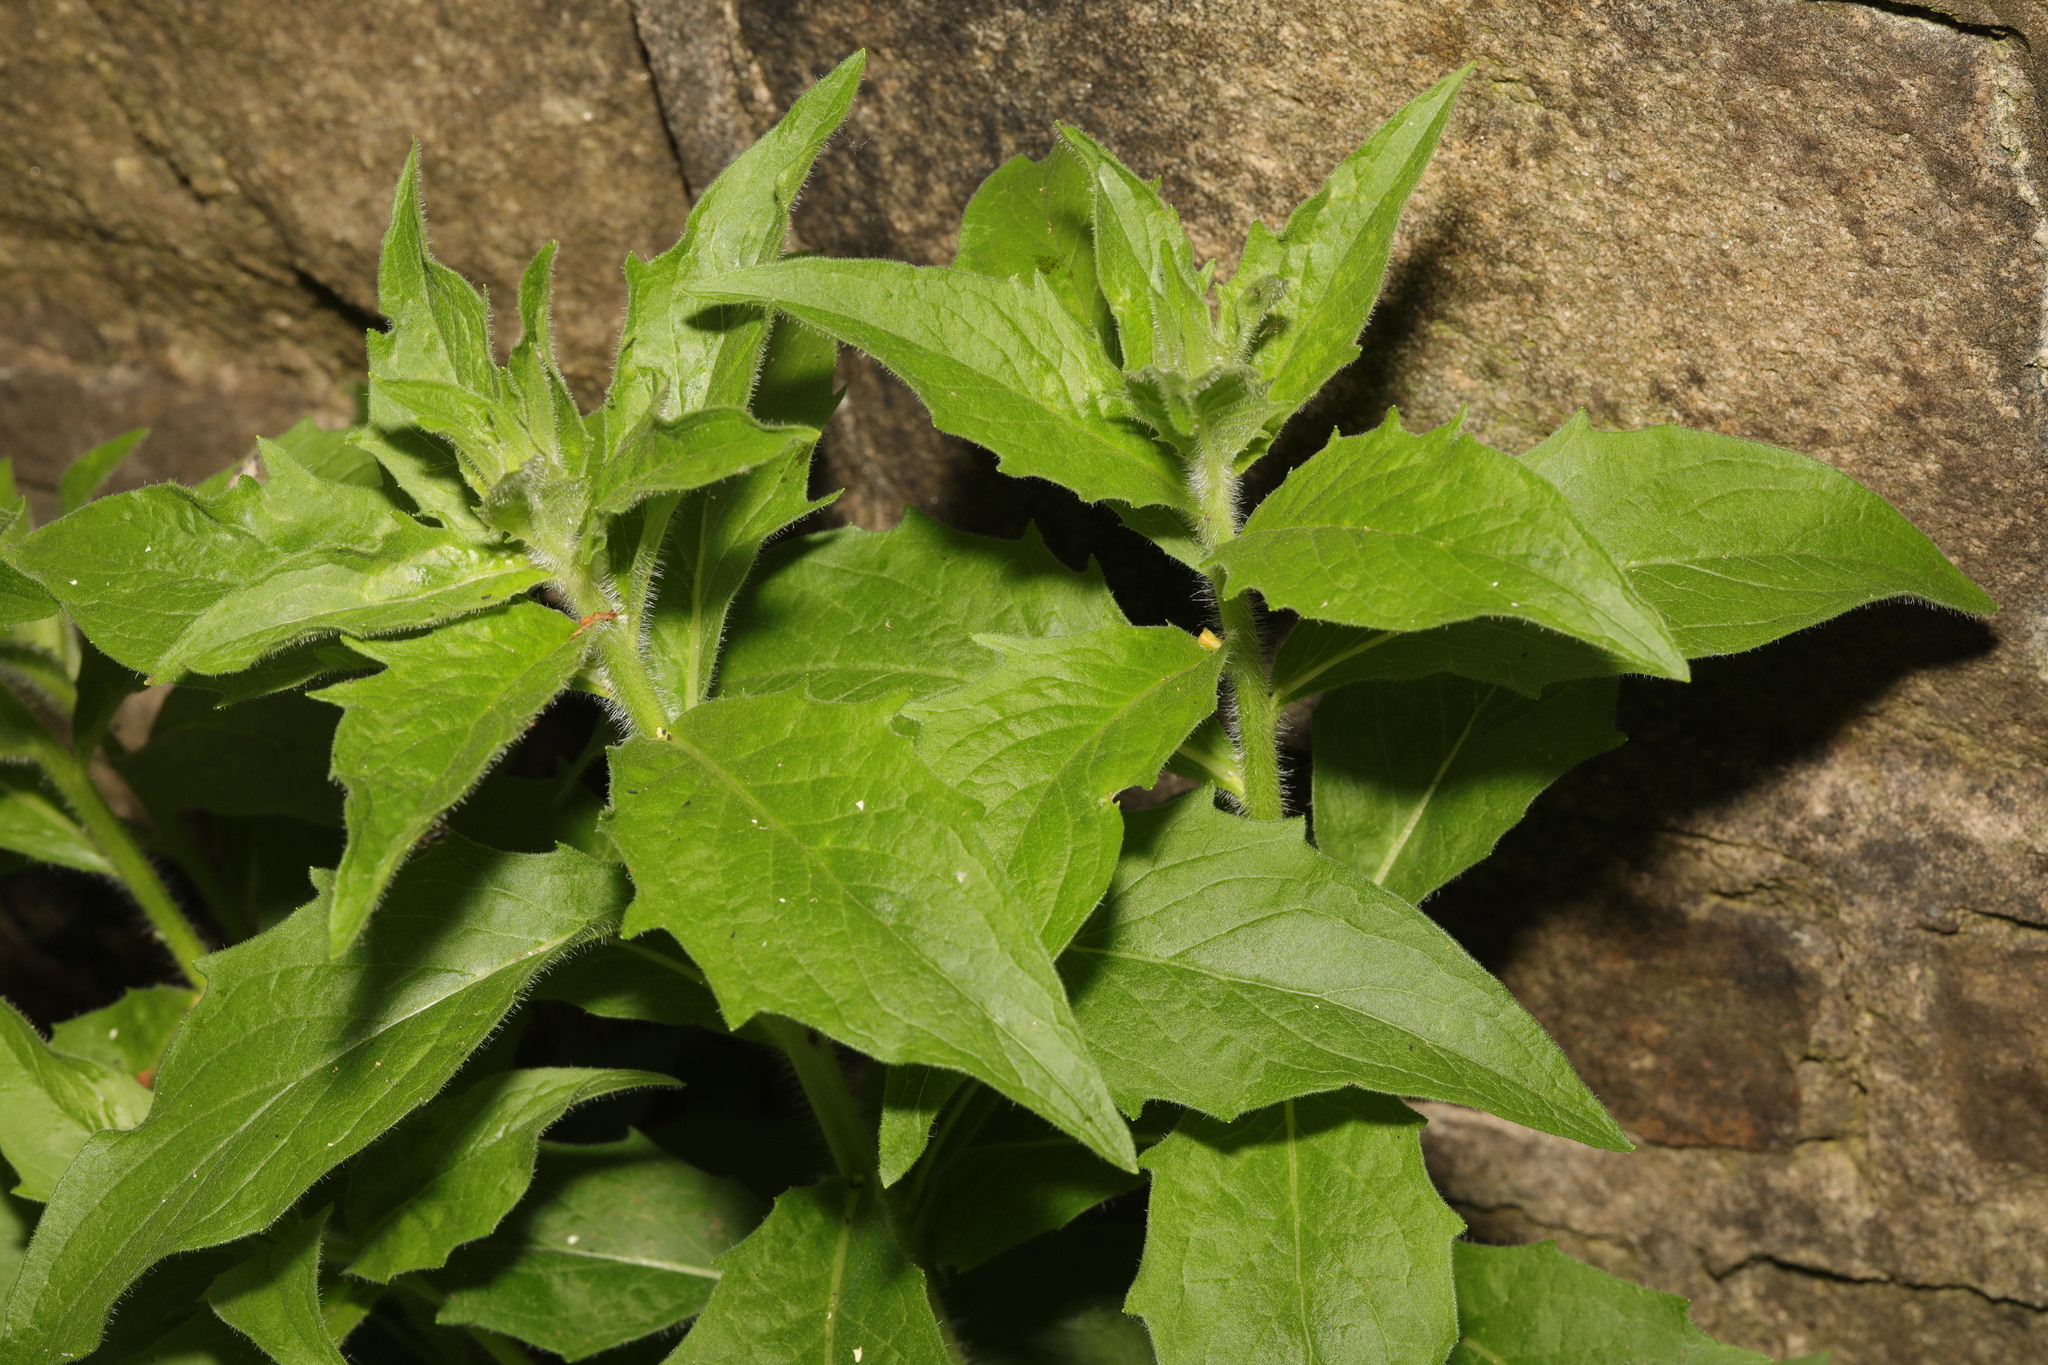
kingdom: Plantae
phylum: Tracheophyta
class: Magnoliopsida
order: Asterales
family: Asteraceae
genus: Hieracium
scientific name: Hieracium sabaudum
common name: New england hawkweed
